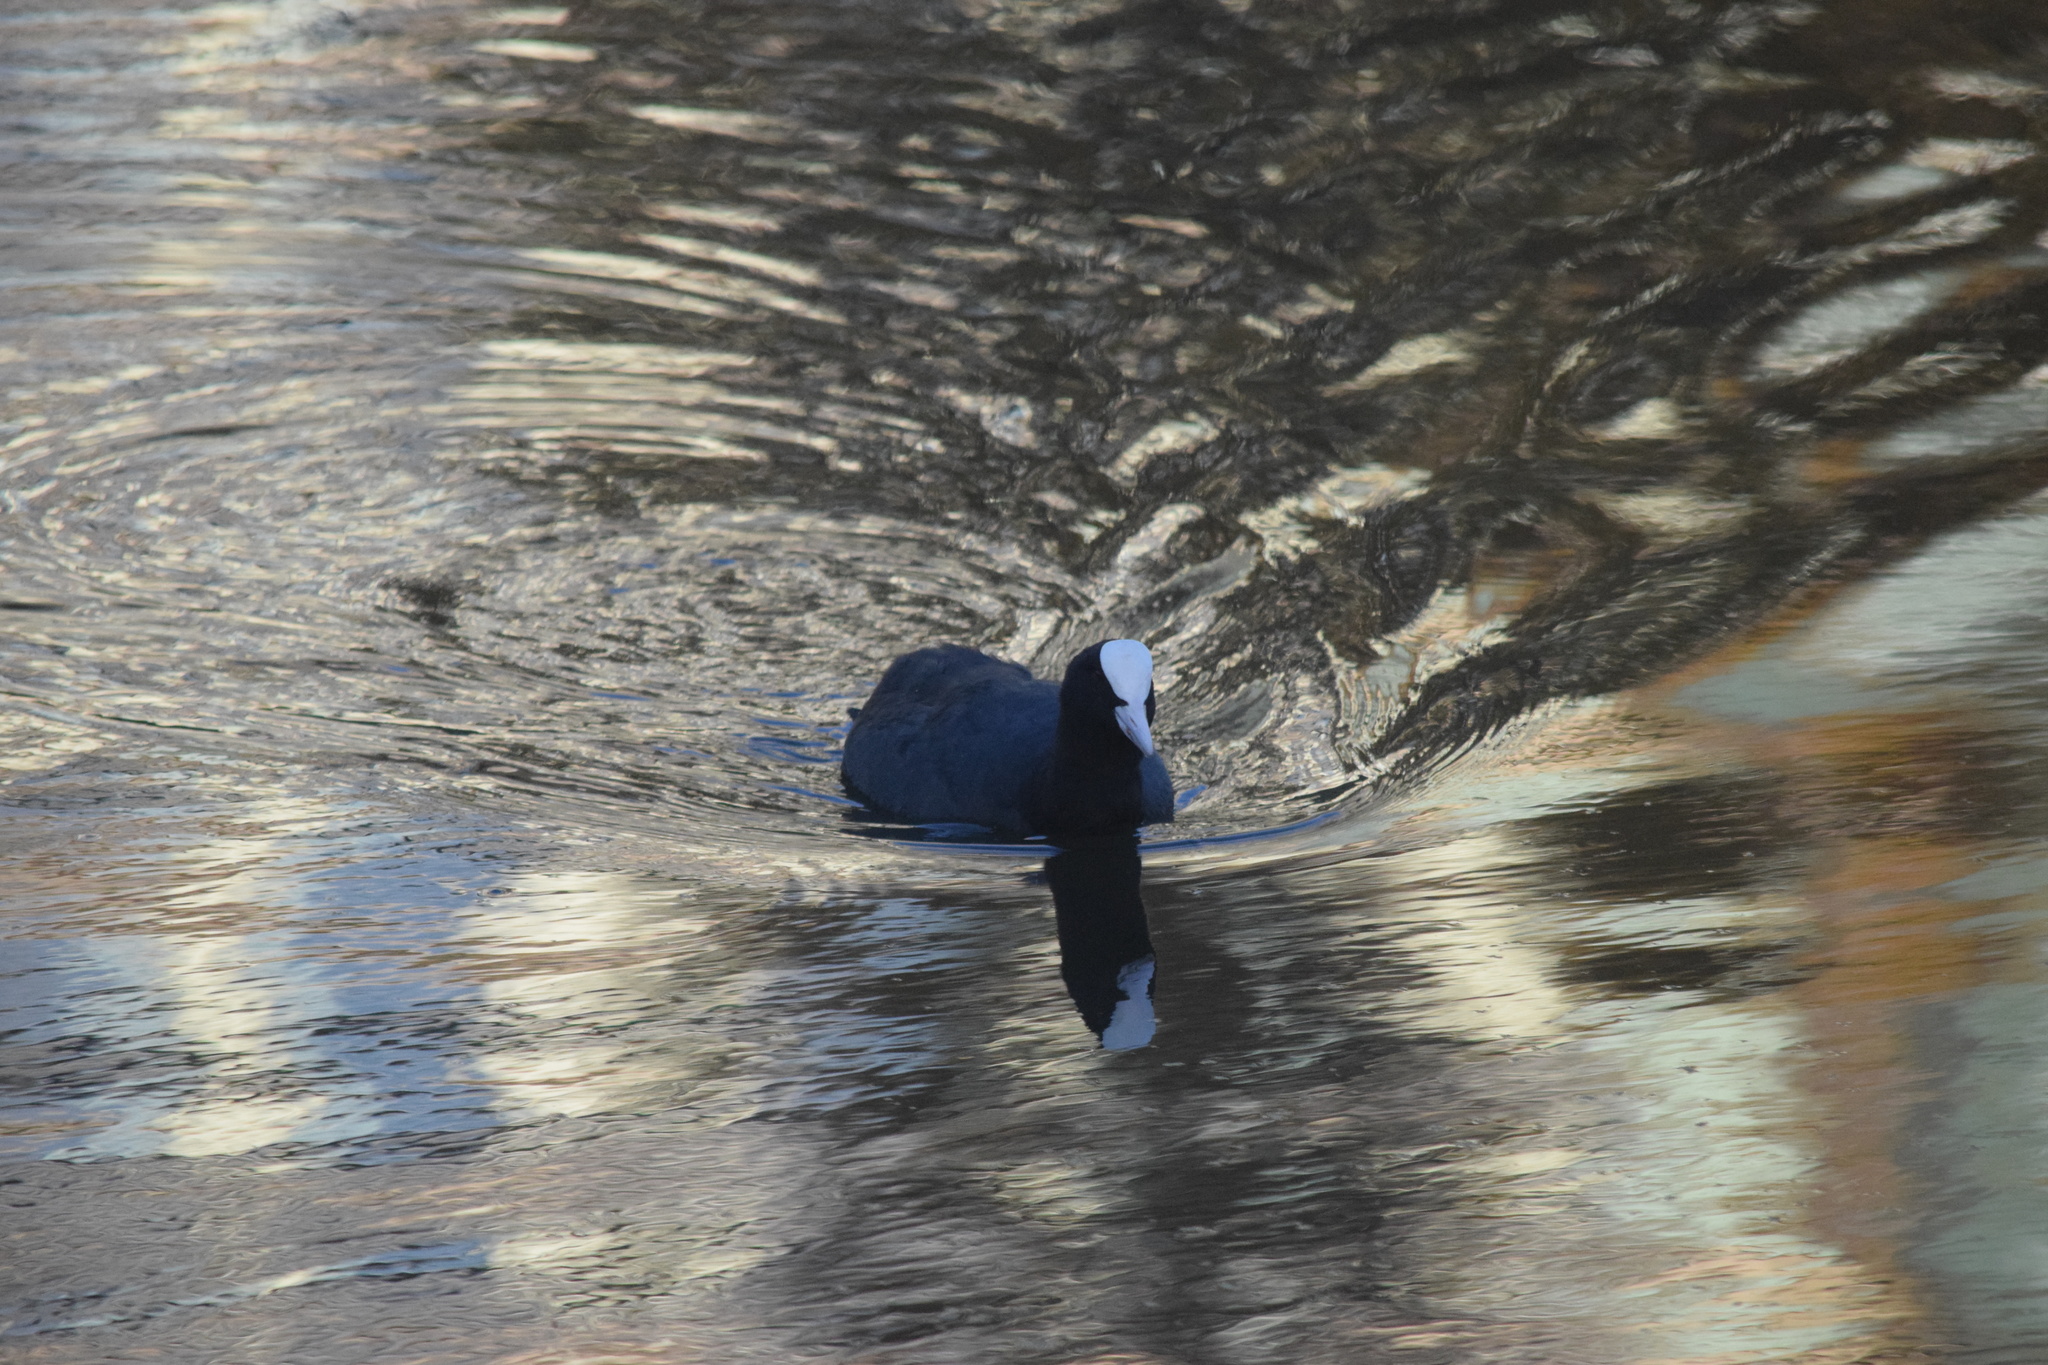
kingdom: Animalia
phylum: Chordata
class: Aves
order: Gruiformes
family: Rallidae
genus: Fulica
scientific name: Fulica atra
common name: Eurasian coot
